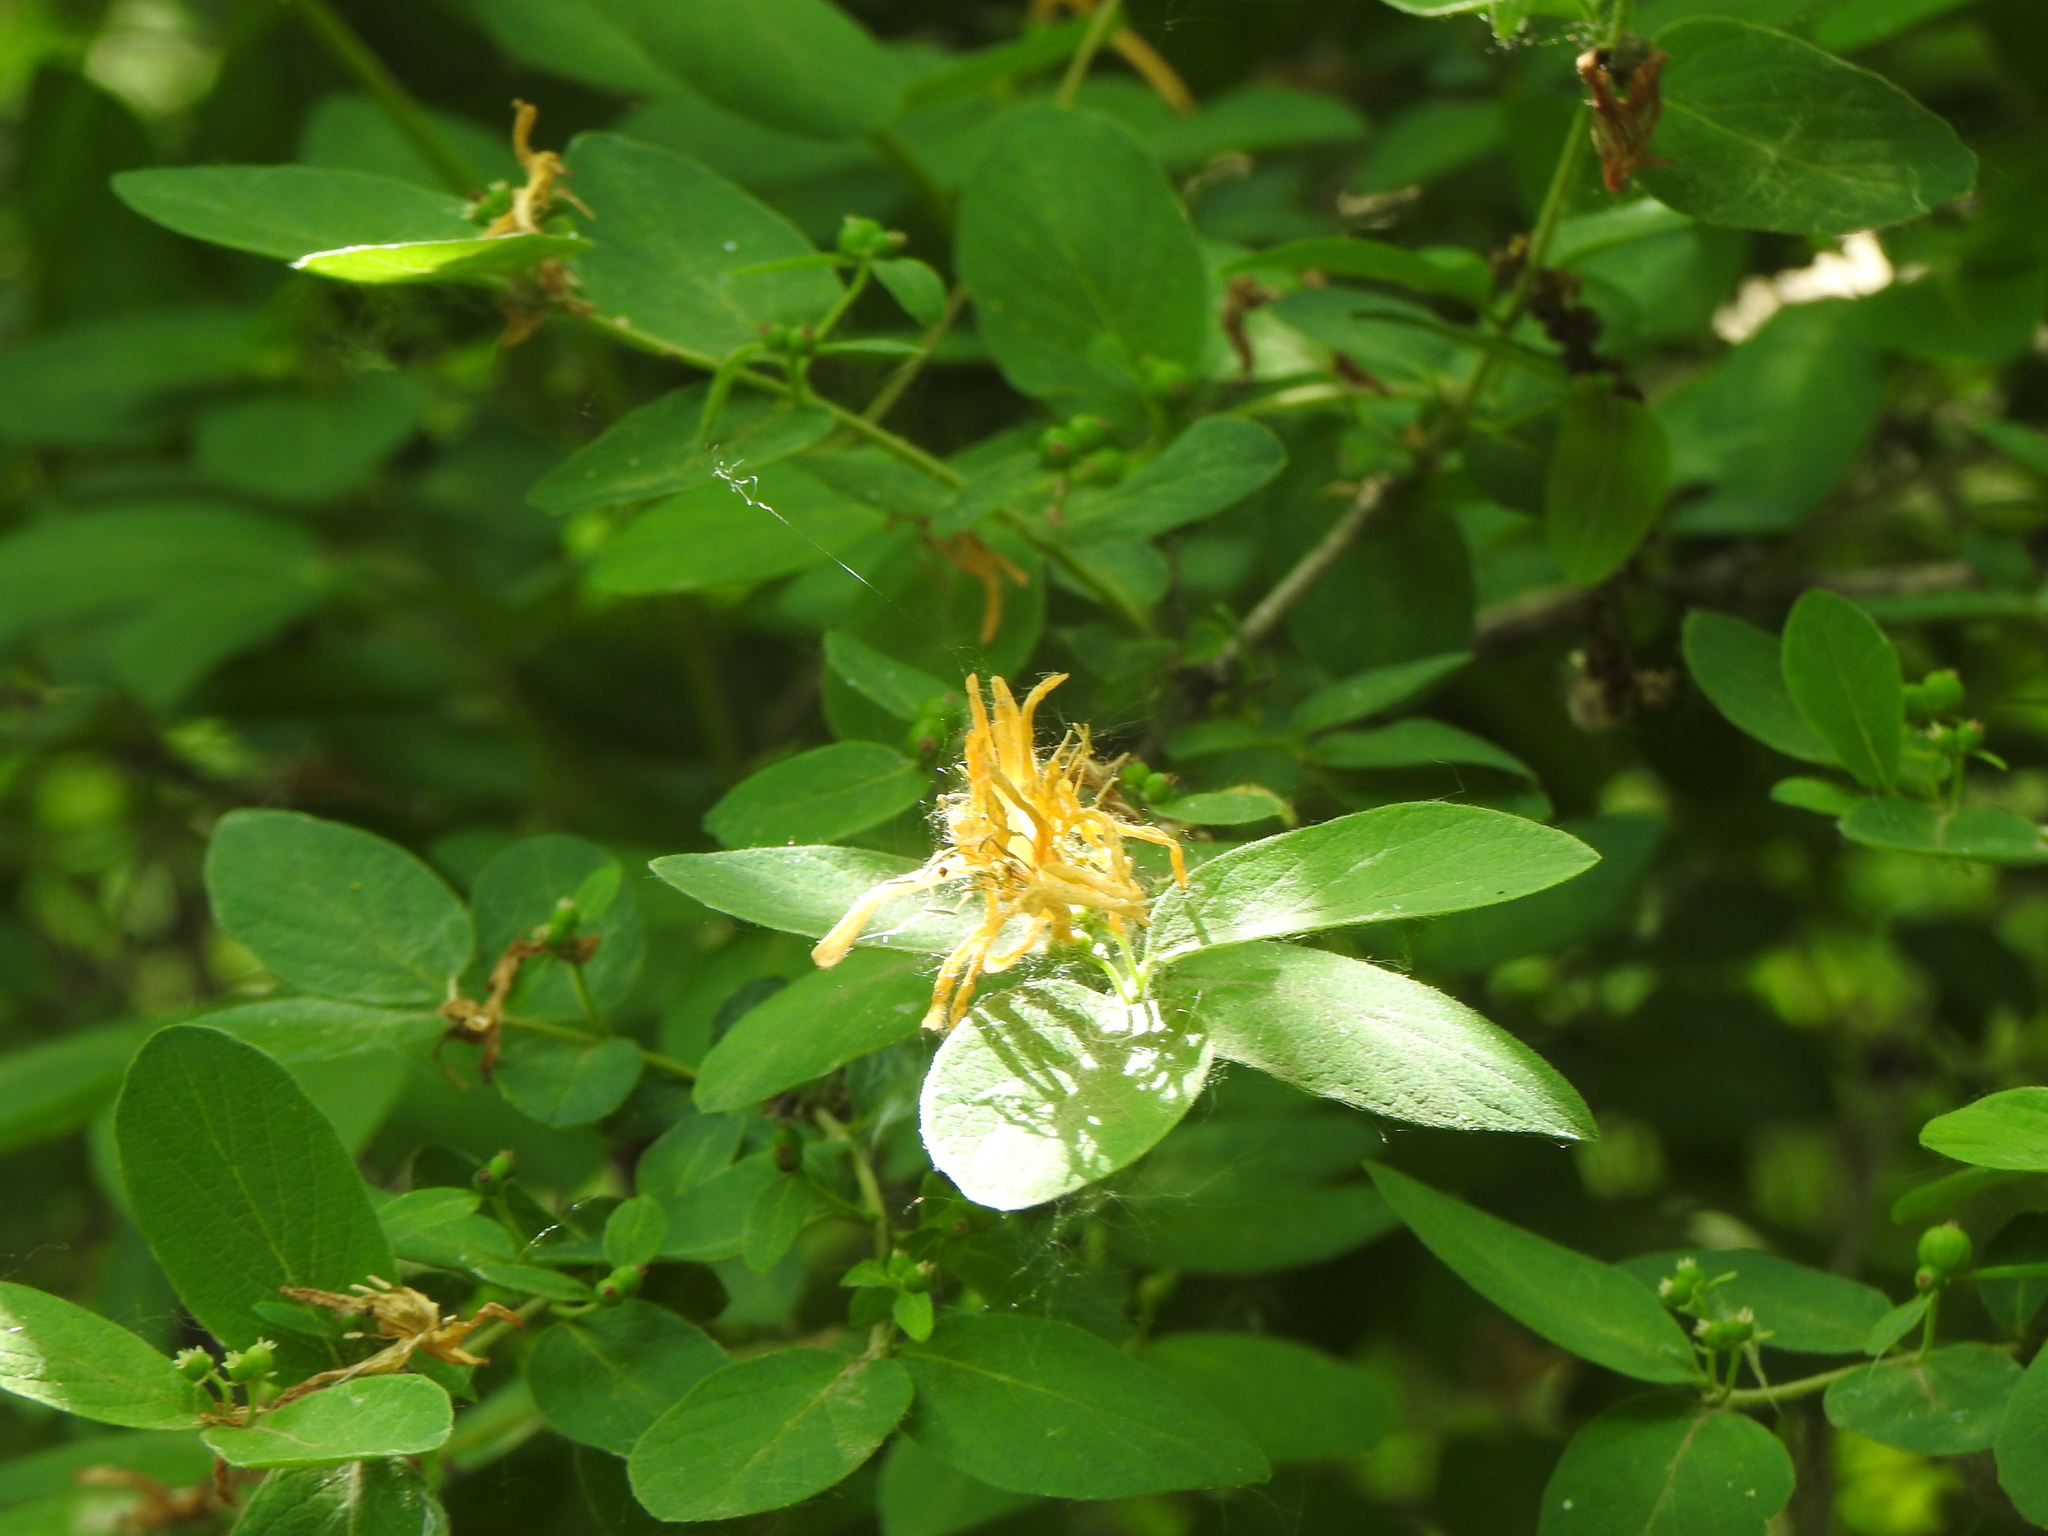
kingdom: Plantae
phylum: Tracheophyta
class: Magnoliopsida
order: Dipsacales
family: Caprifoliaceae
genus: Lonicera
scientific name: Lonicera morrowii
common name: Morrow's honeysuckle
